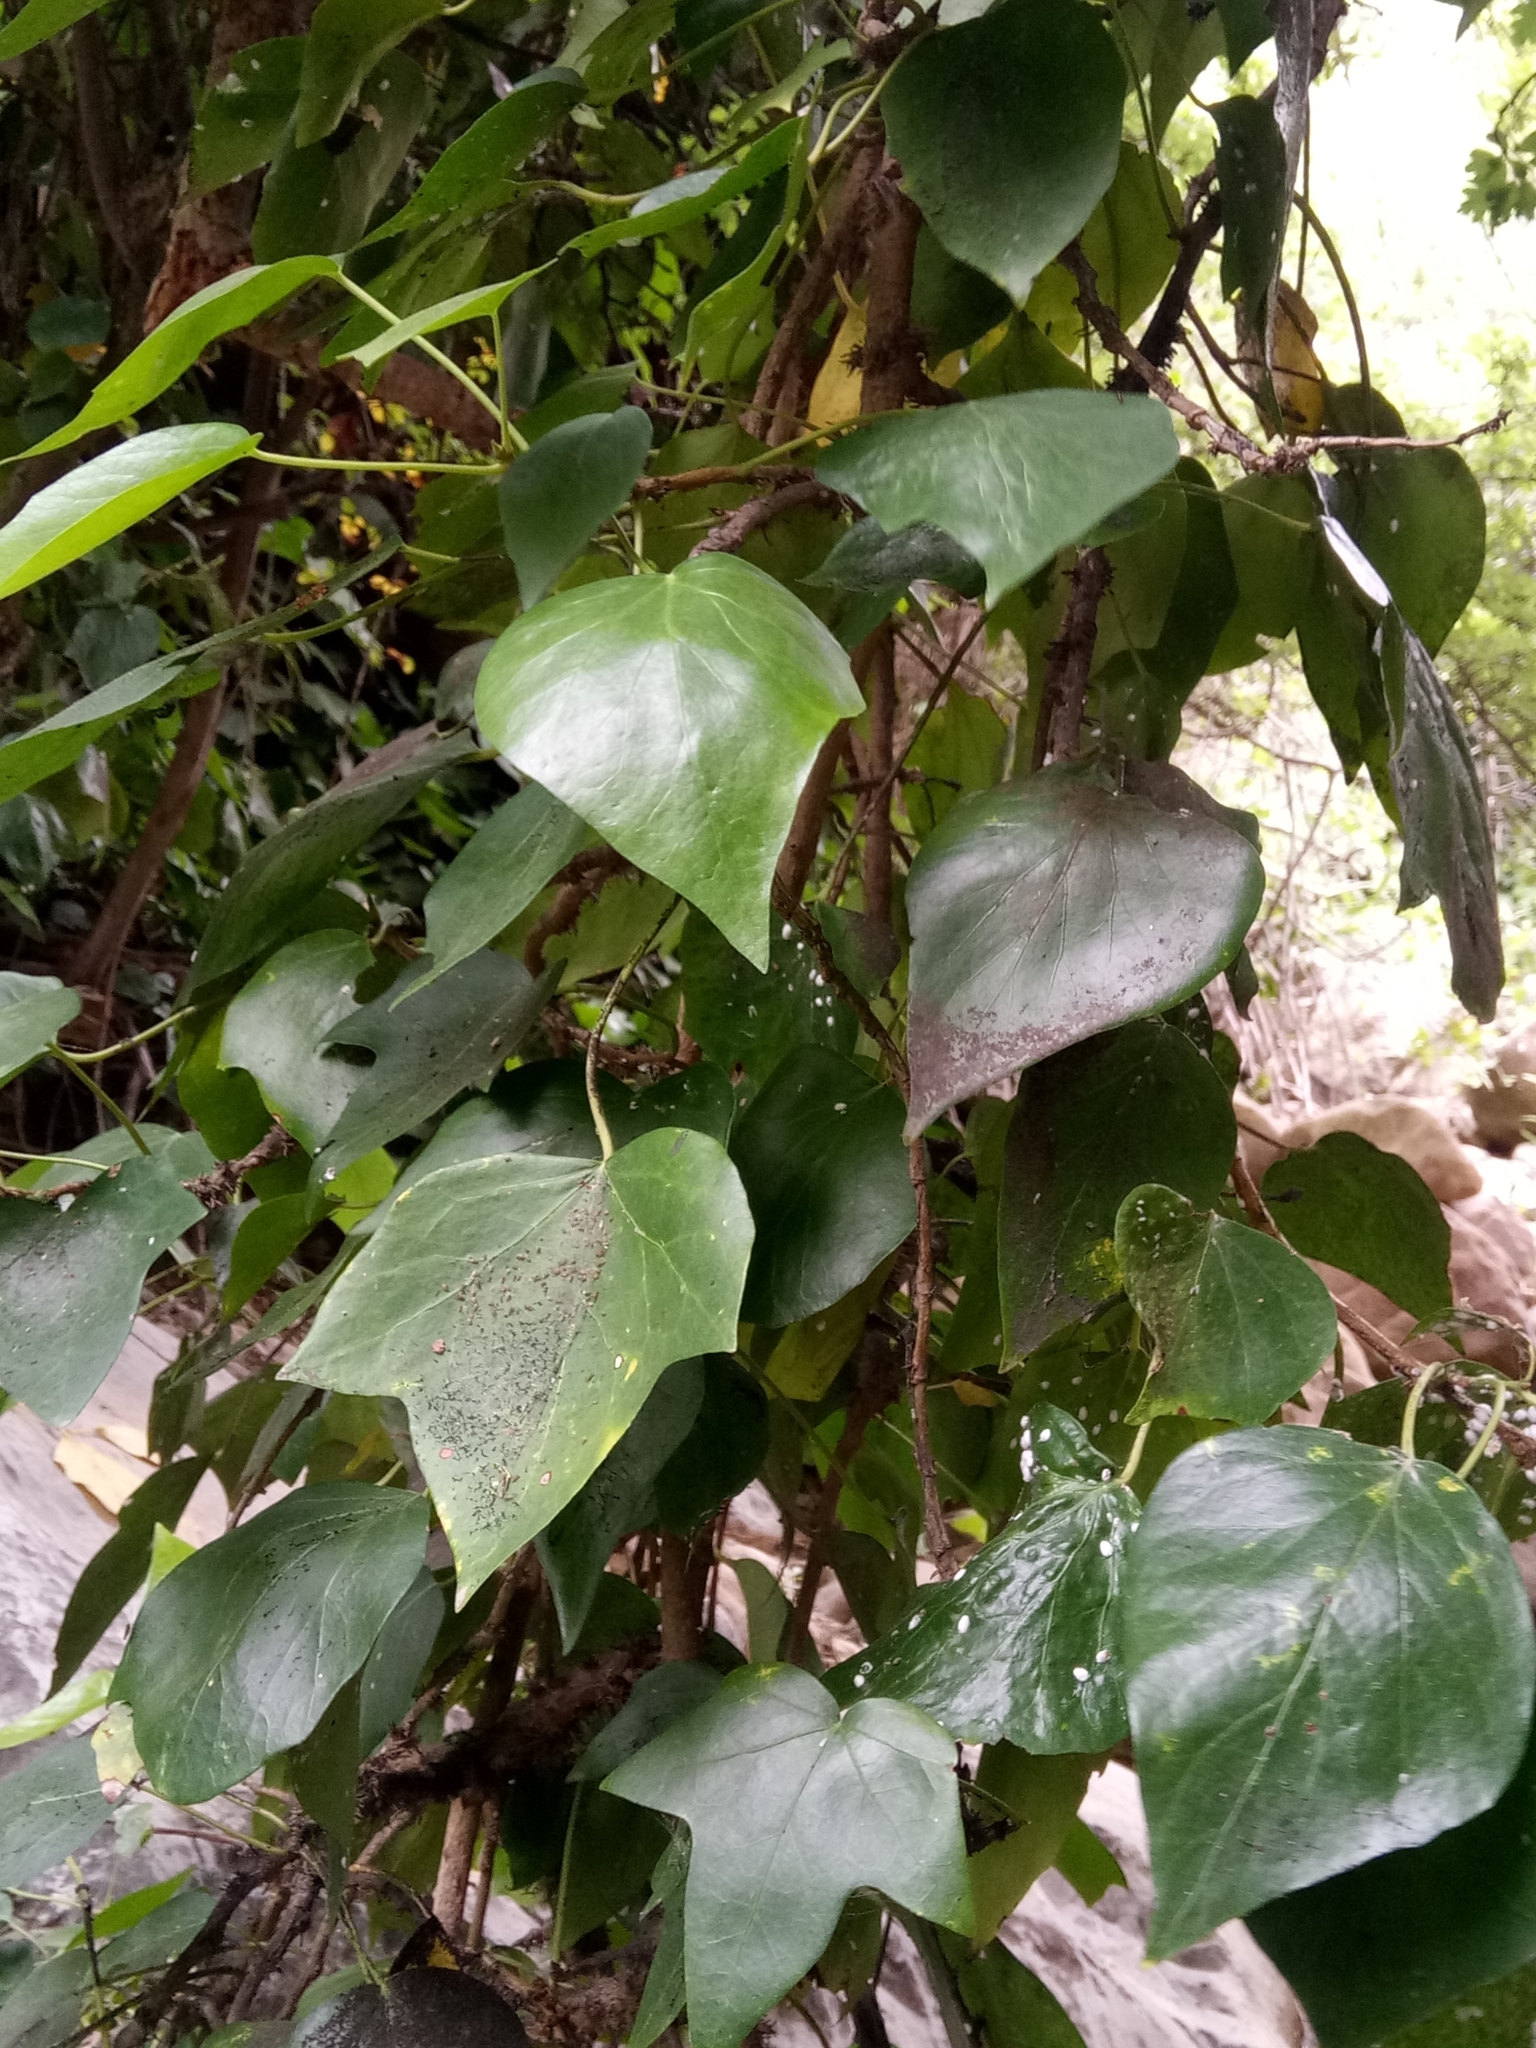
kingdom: Plantae
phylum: Tracheophyta
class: Magnoliopsida
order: Apiales
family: Araliaceae
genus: Hedera
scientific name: Hedera algeriensis
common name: Algerian ivy
